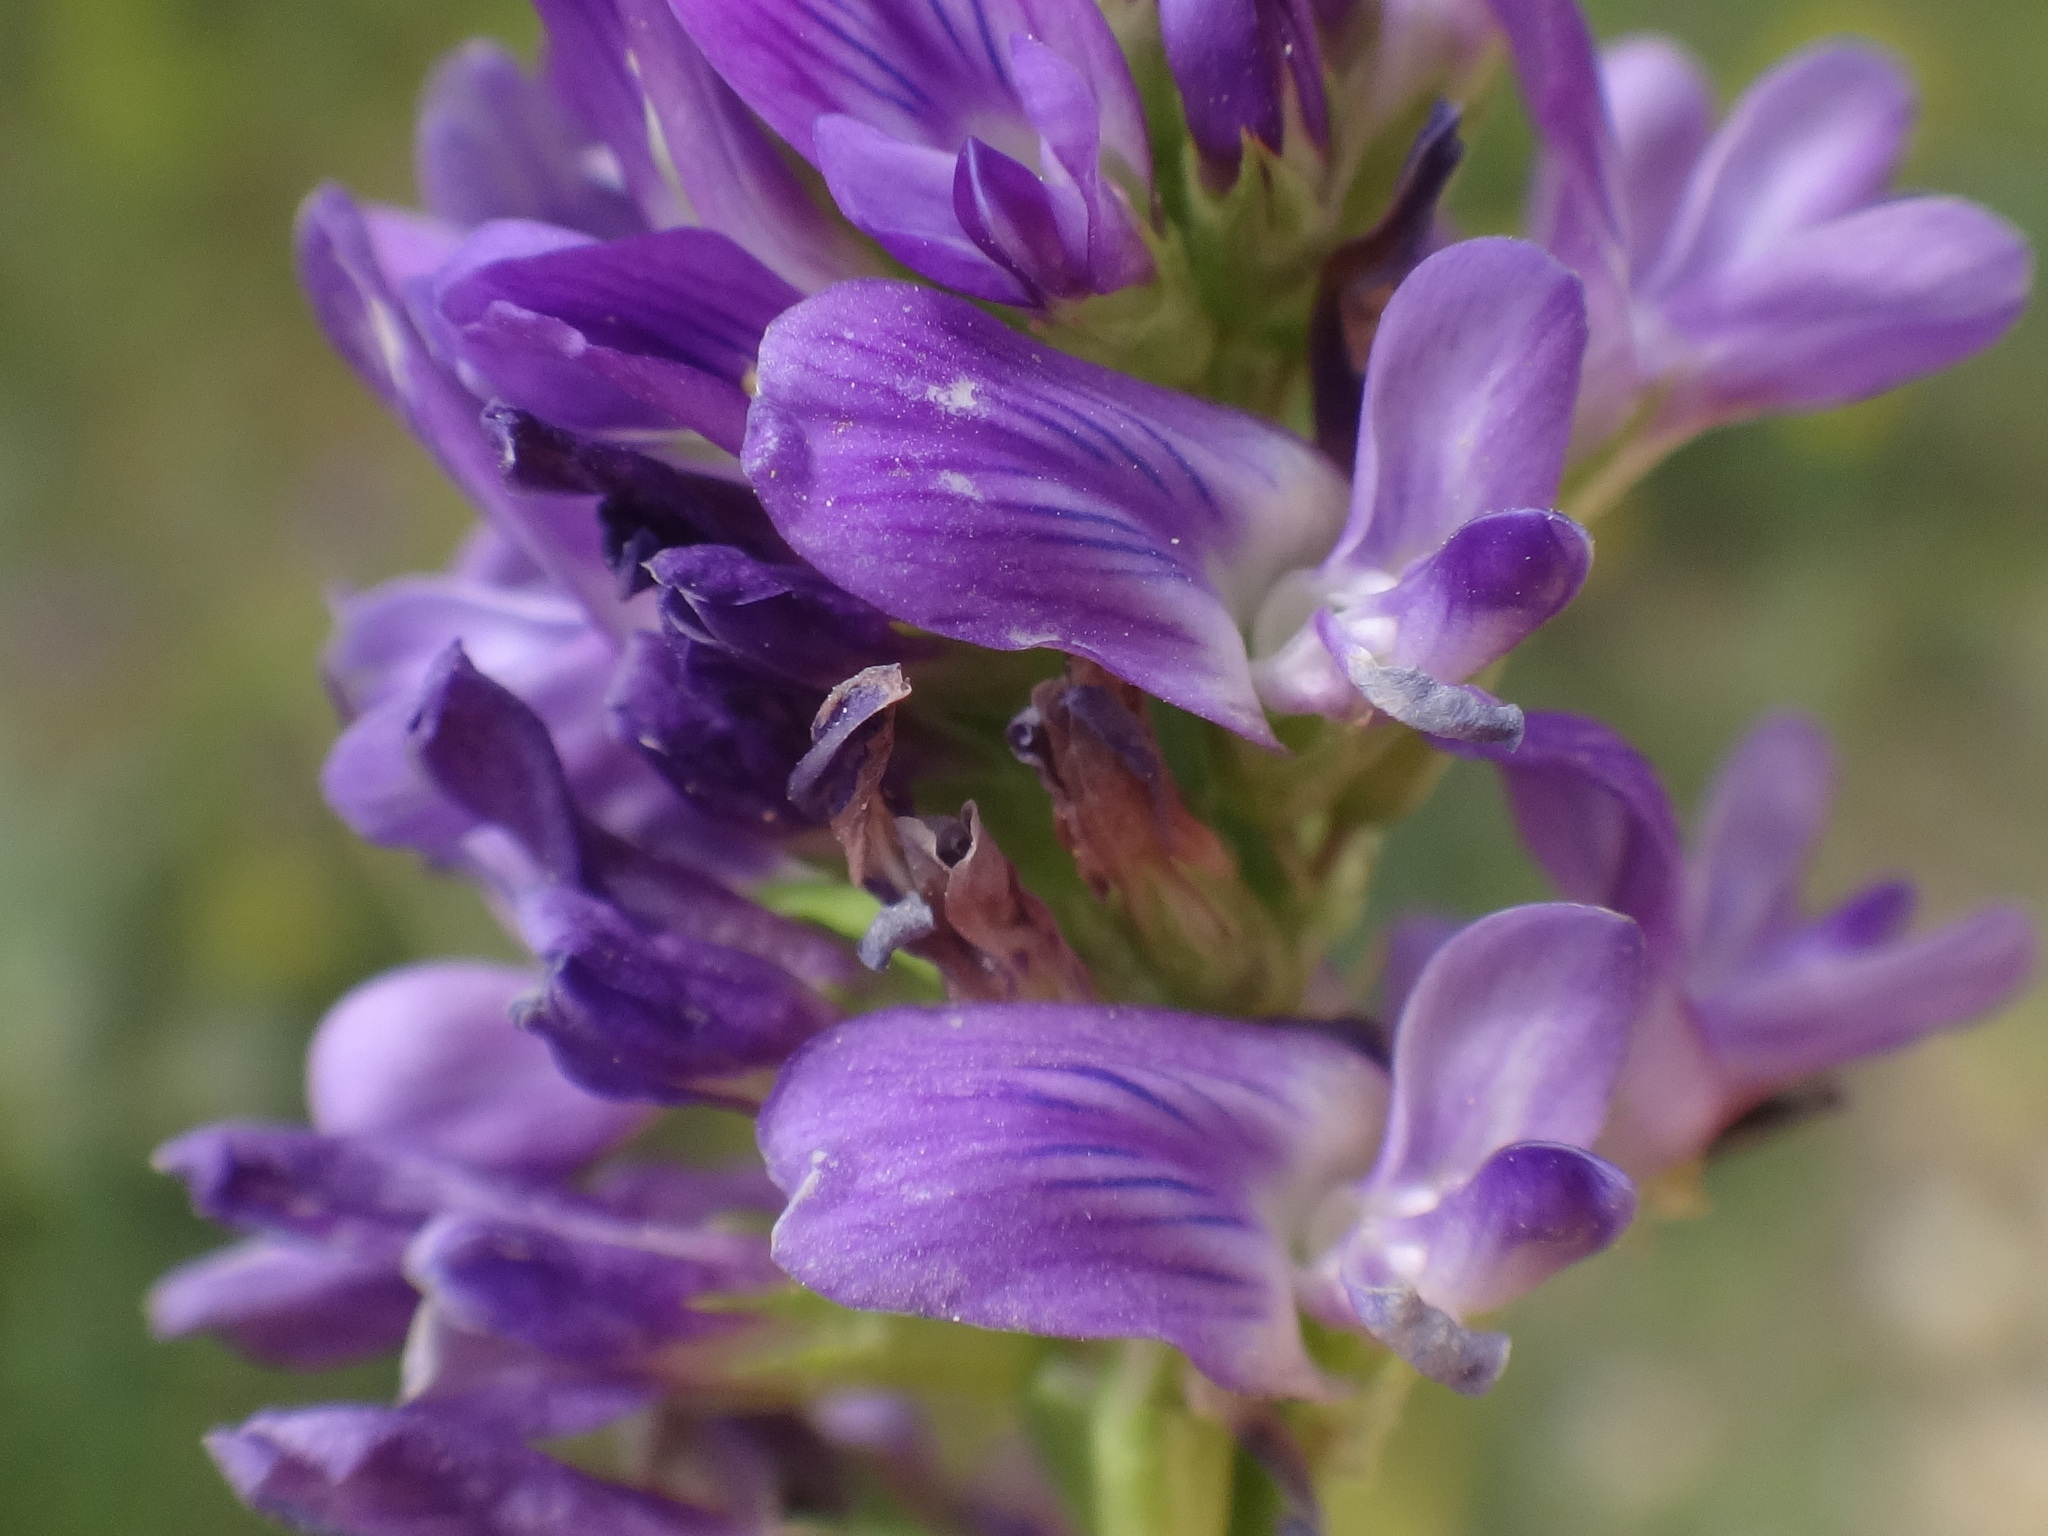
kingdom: Plantae
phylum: Tracheophyta
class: Magnoliopsida
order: Fabales
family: Fabaceae
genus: Medicago
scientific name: Medicago sativa
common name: Alfalfa
